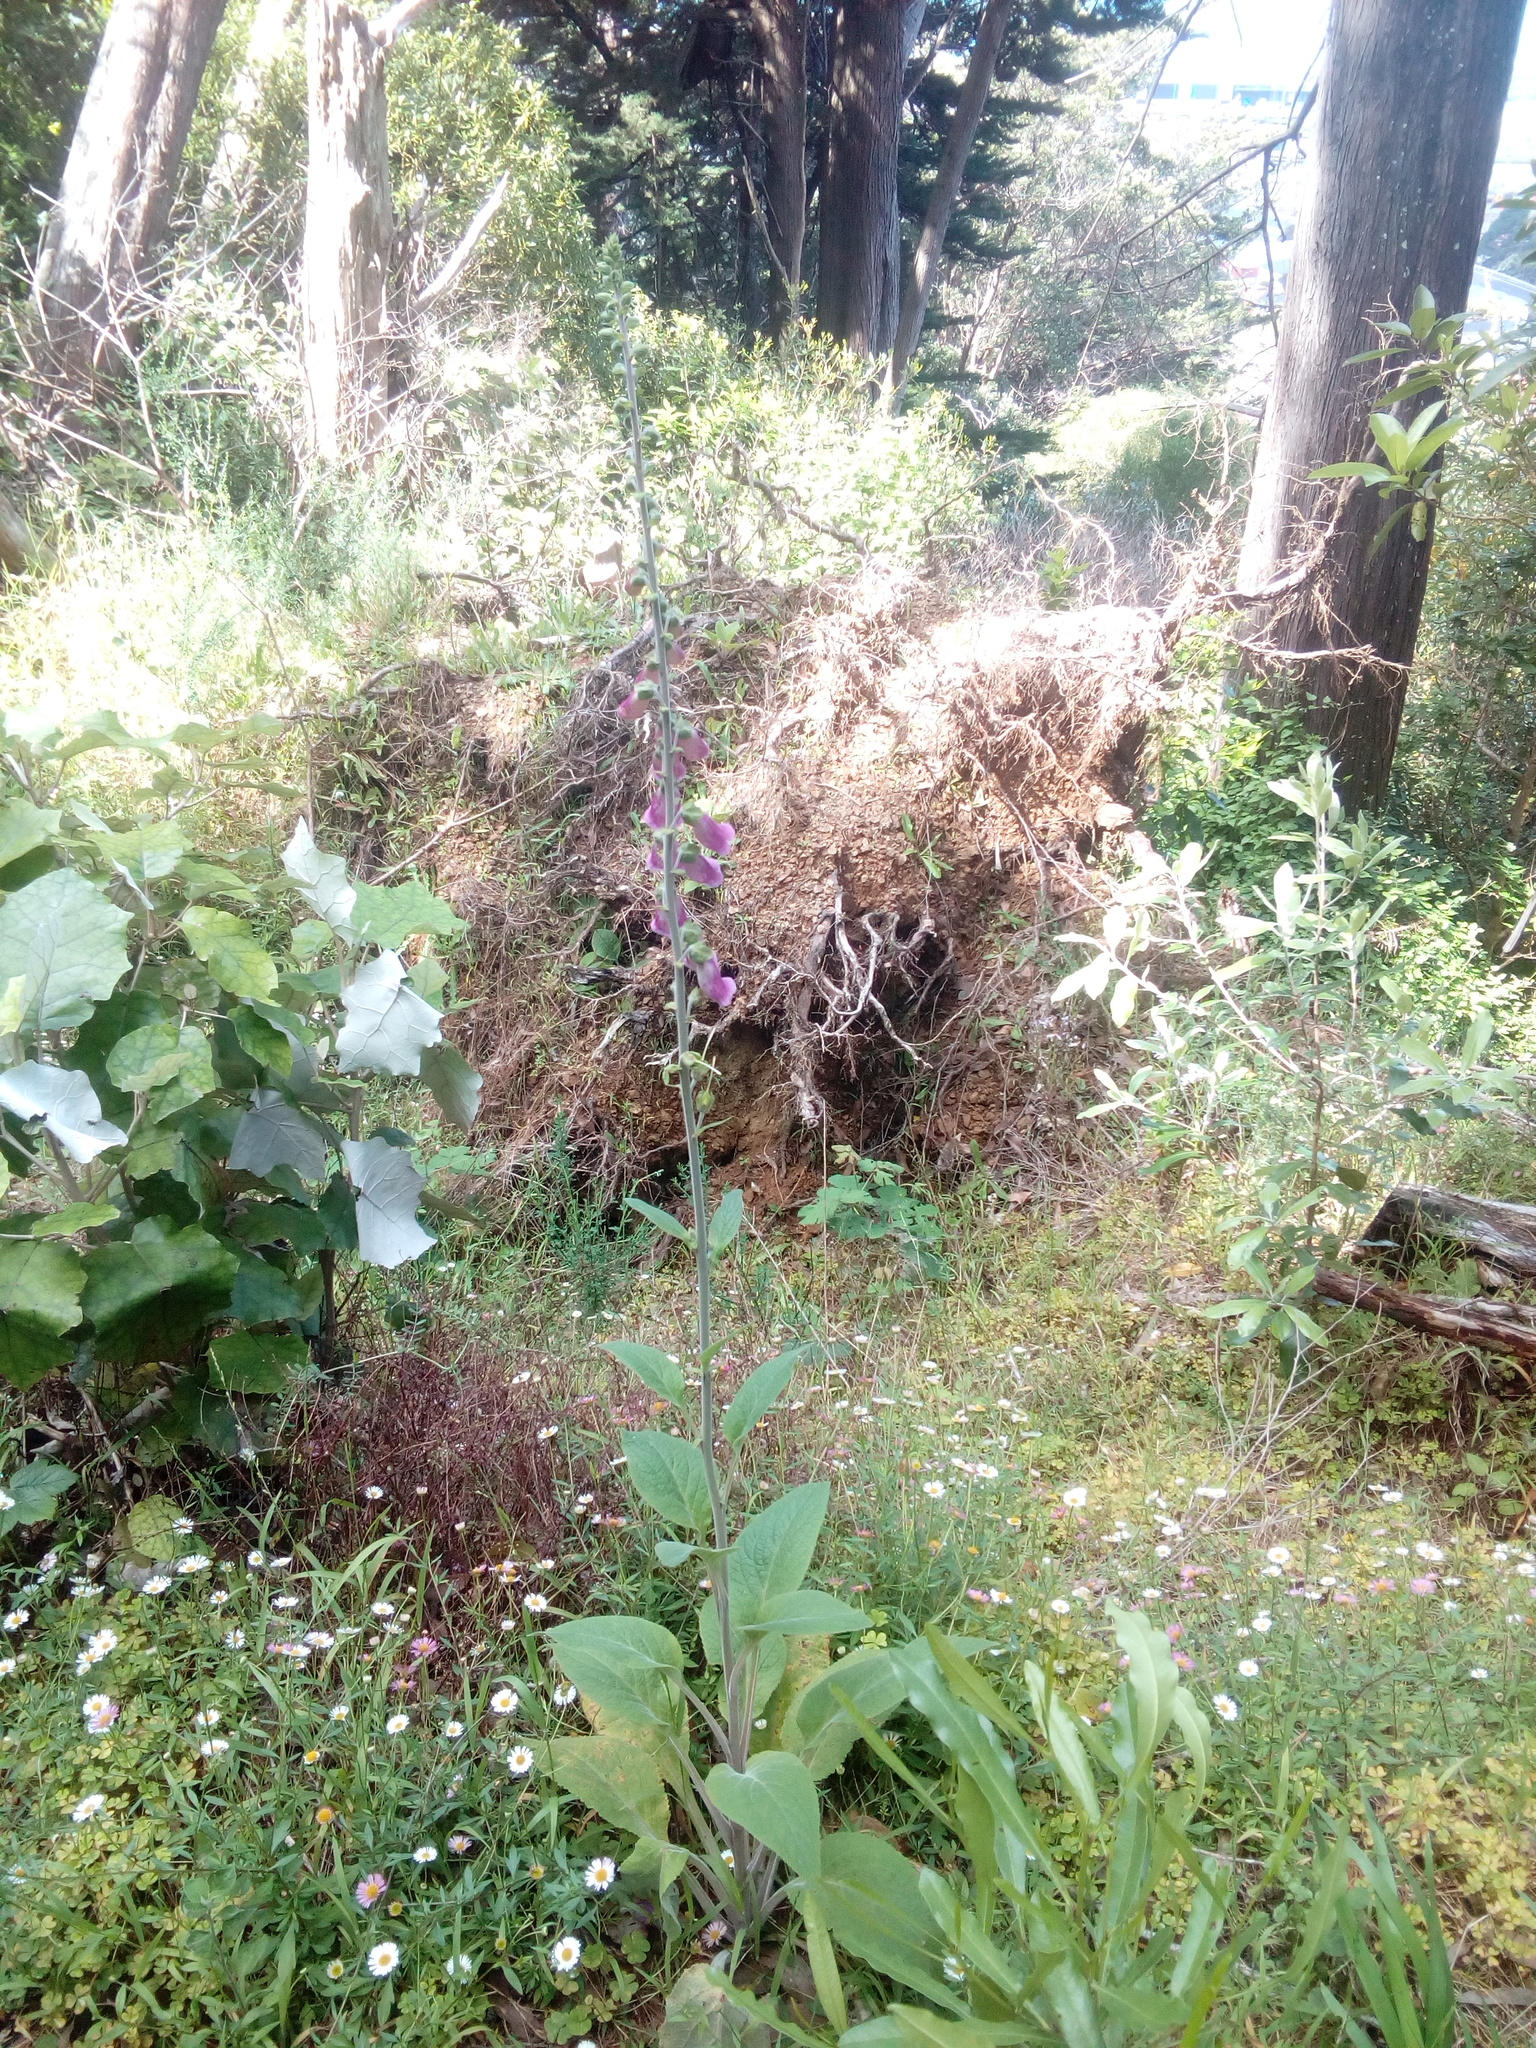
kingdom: Plantae
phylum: Tracheophyta
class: Magnoliopsida
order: Lamiales
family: Plantaginaceae
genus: Digitalis
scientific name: Digitalis purpurea
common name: Foxglove
